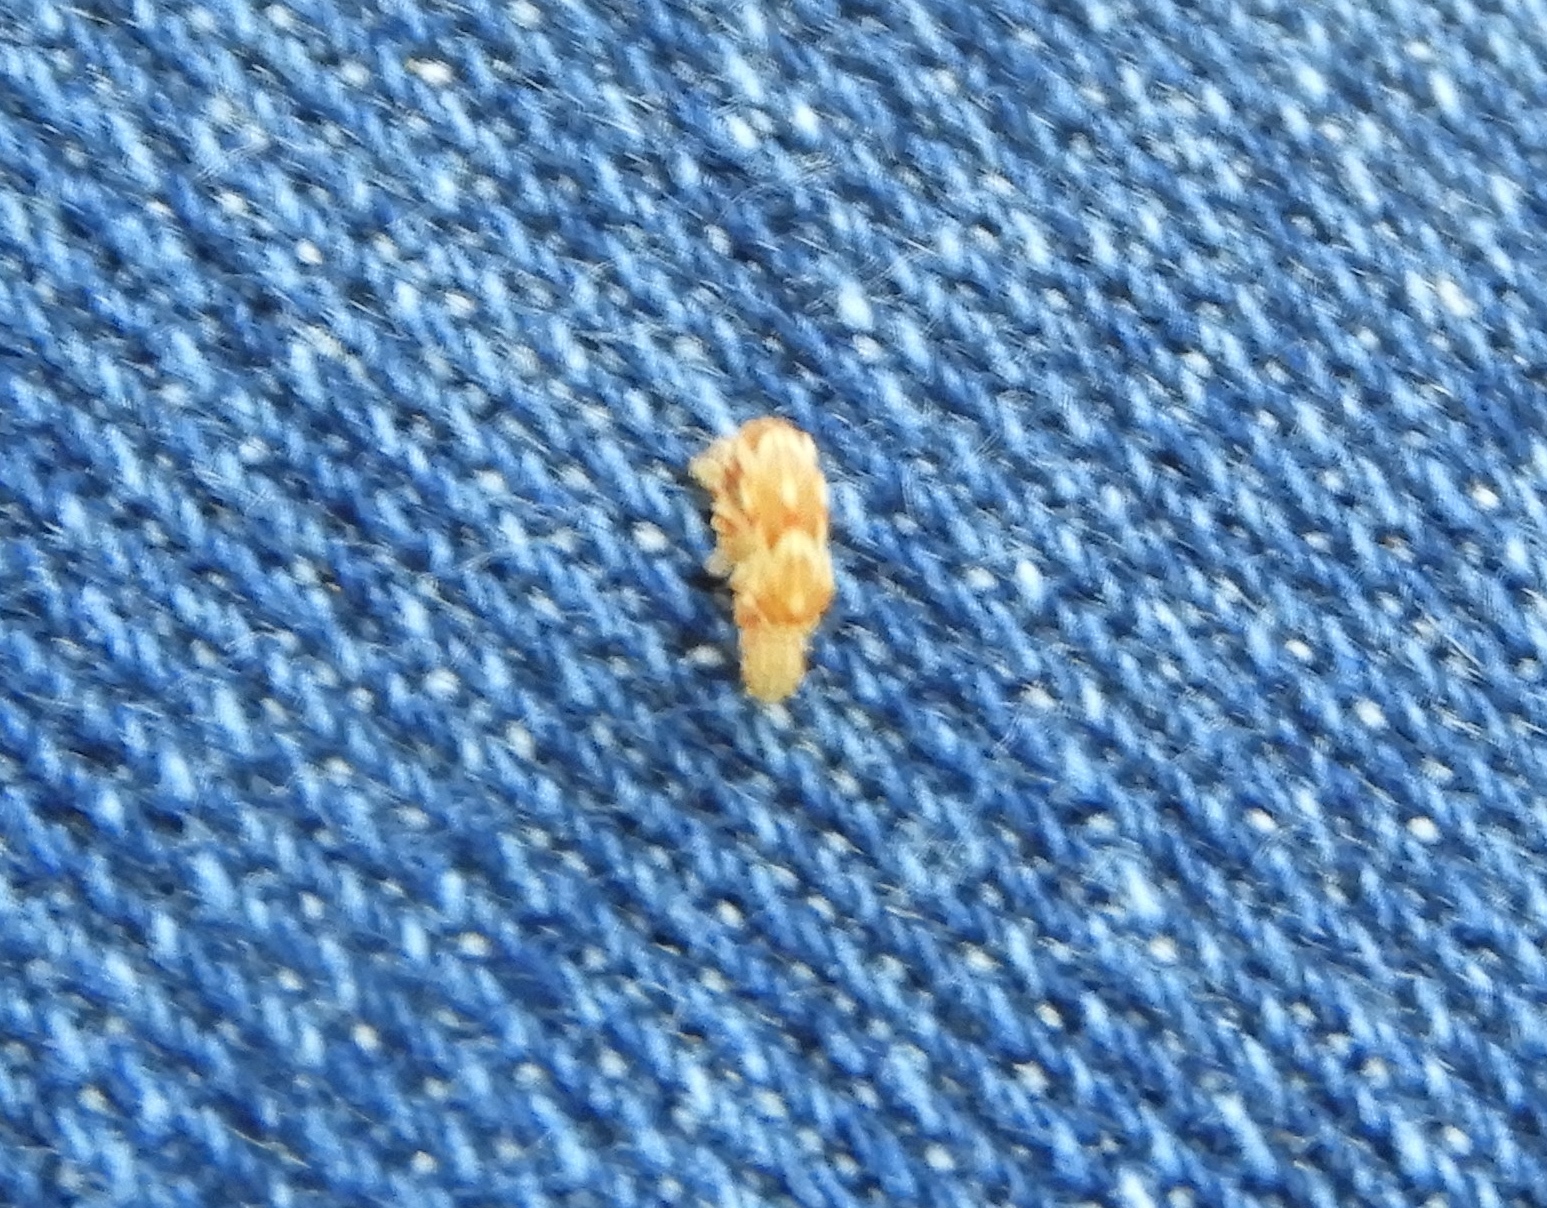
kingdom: Animalia
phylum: Arthropoda
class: Insecta
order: Lepidoptera
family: Geometridae
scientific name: Geometridae
